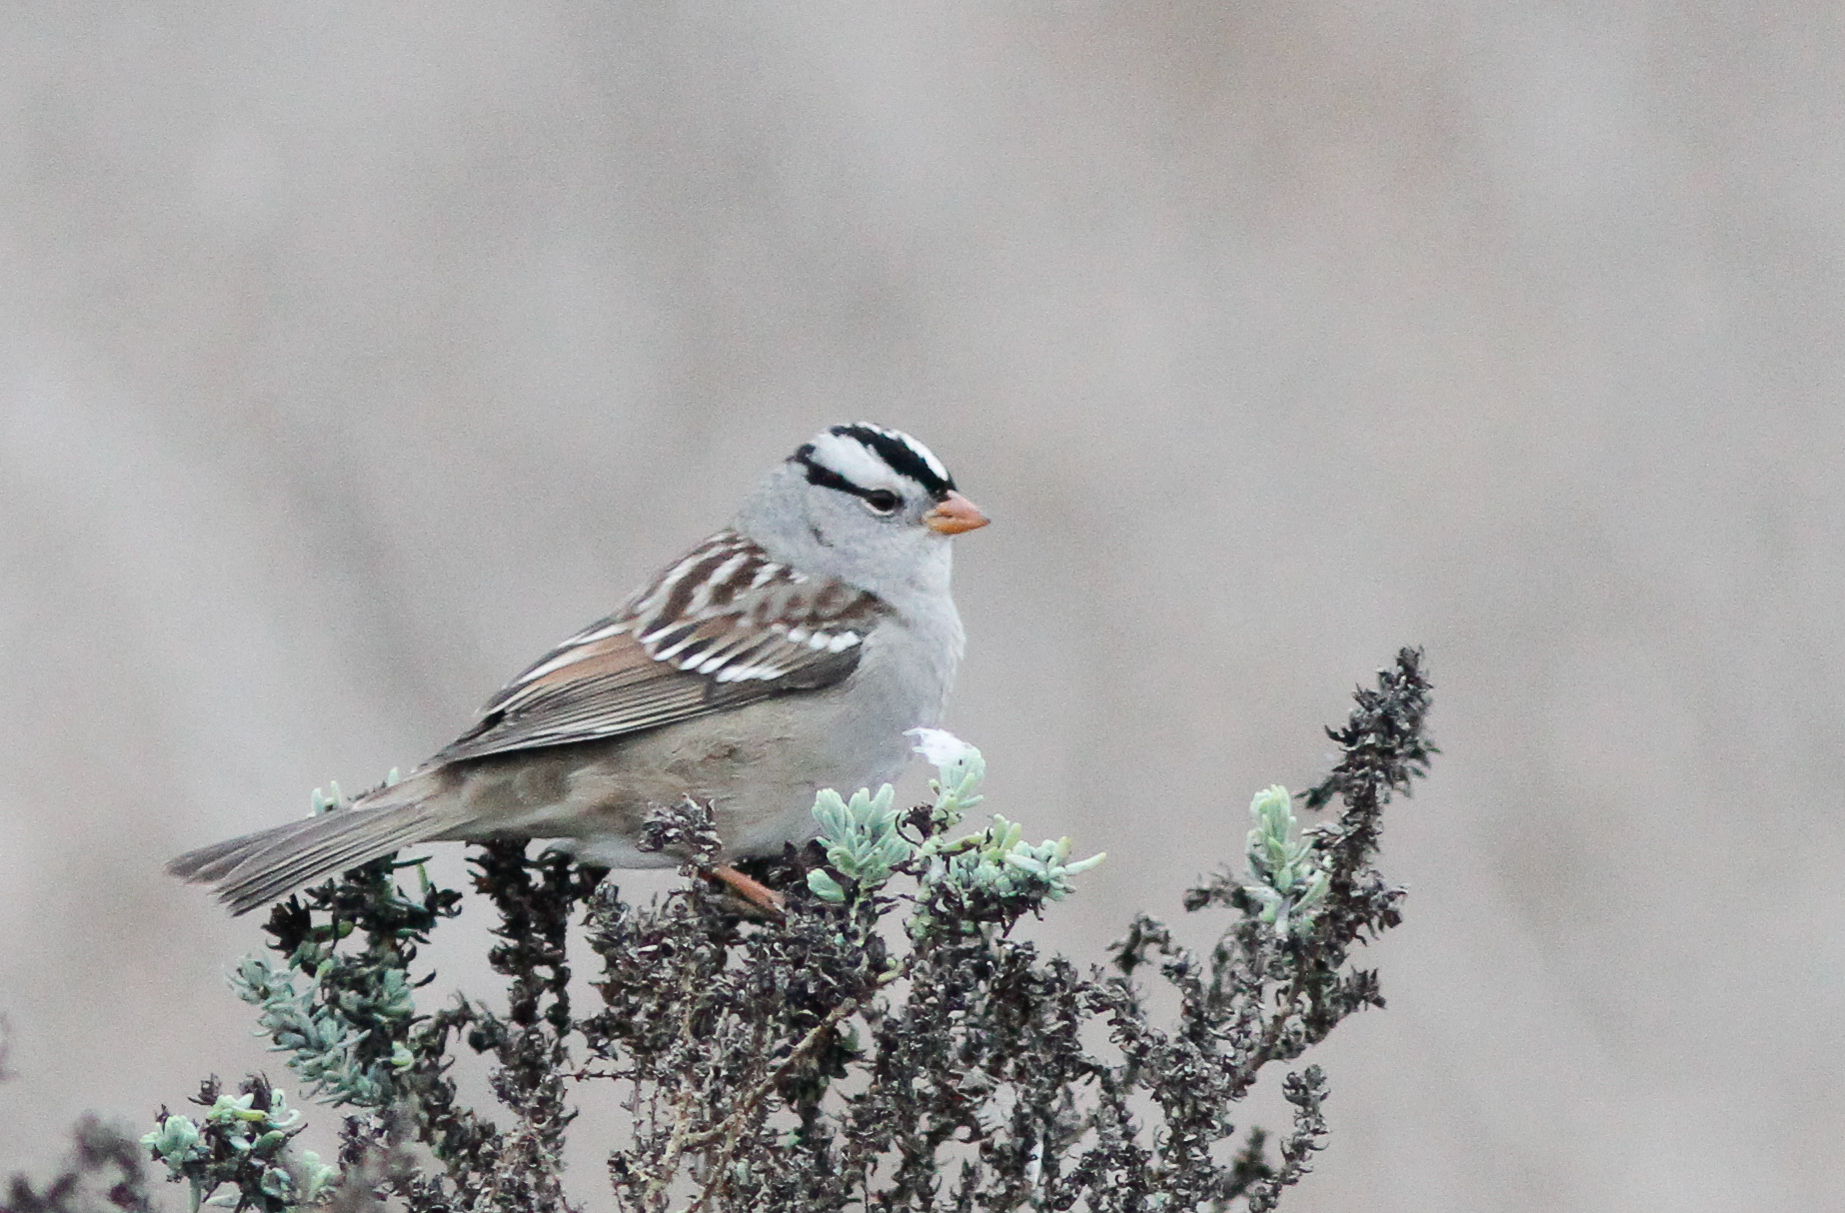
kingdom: Animalia
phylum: Chordata
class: Aves
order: Passeriformes
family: Passerellidae
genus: Zonotrichia
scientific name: Zonotrichia leucophrys
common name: White-crowned sparrow
